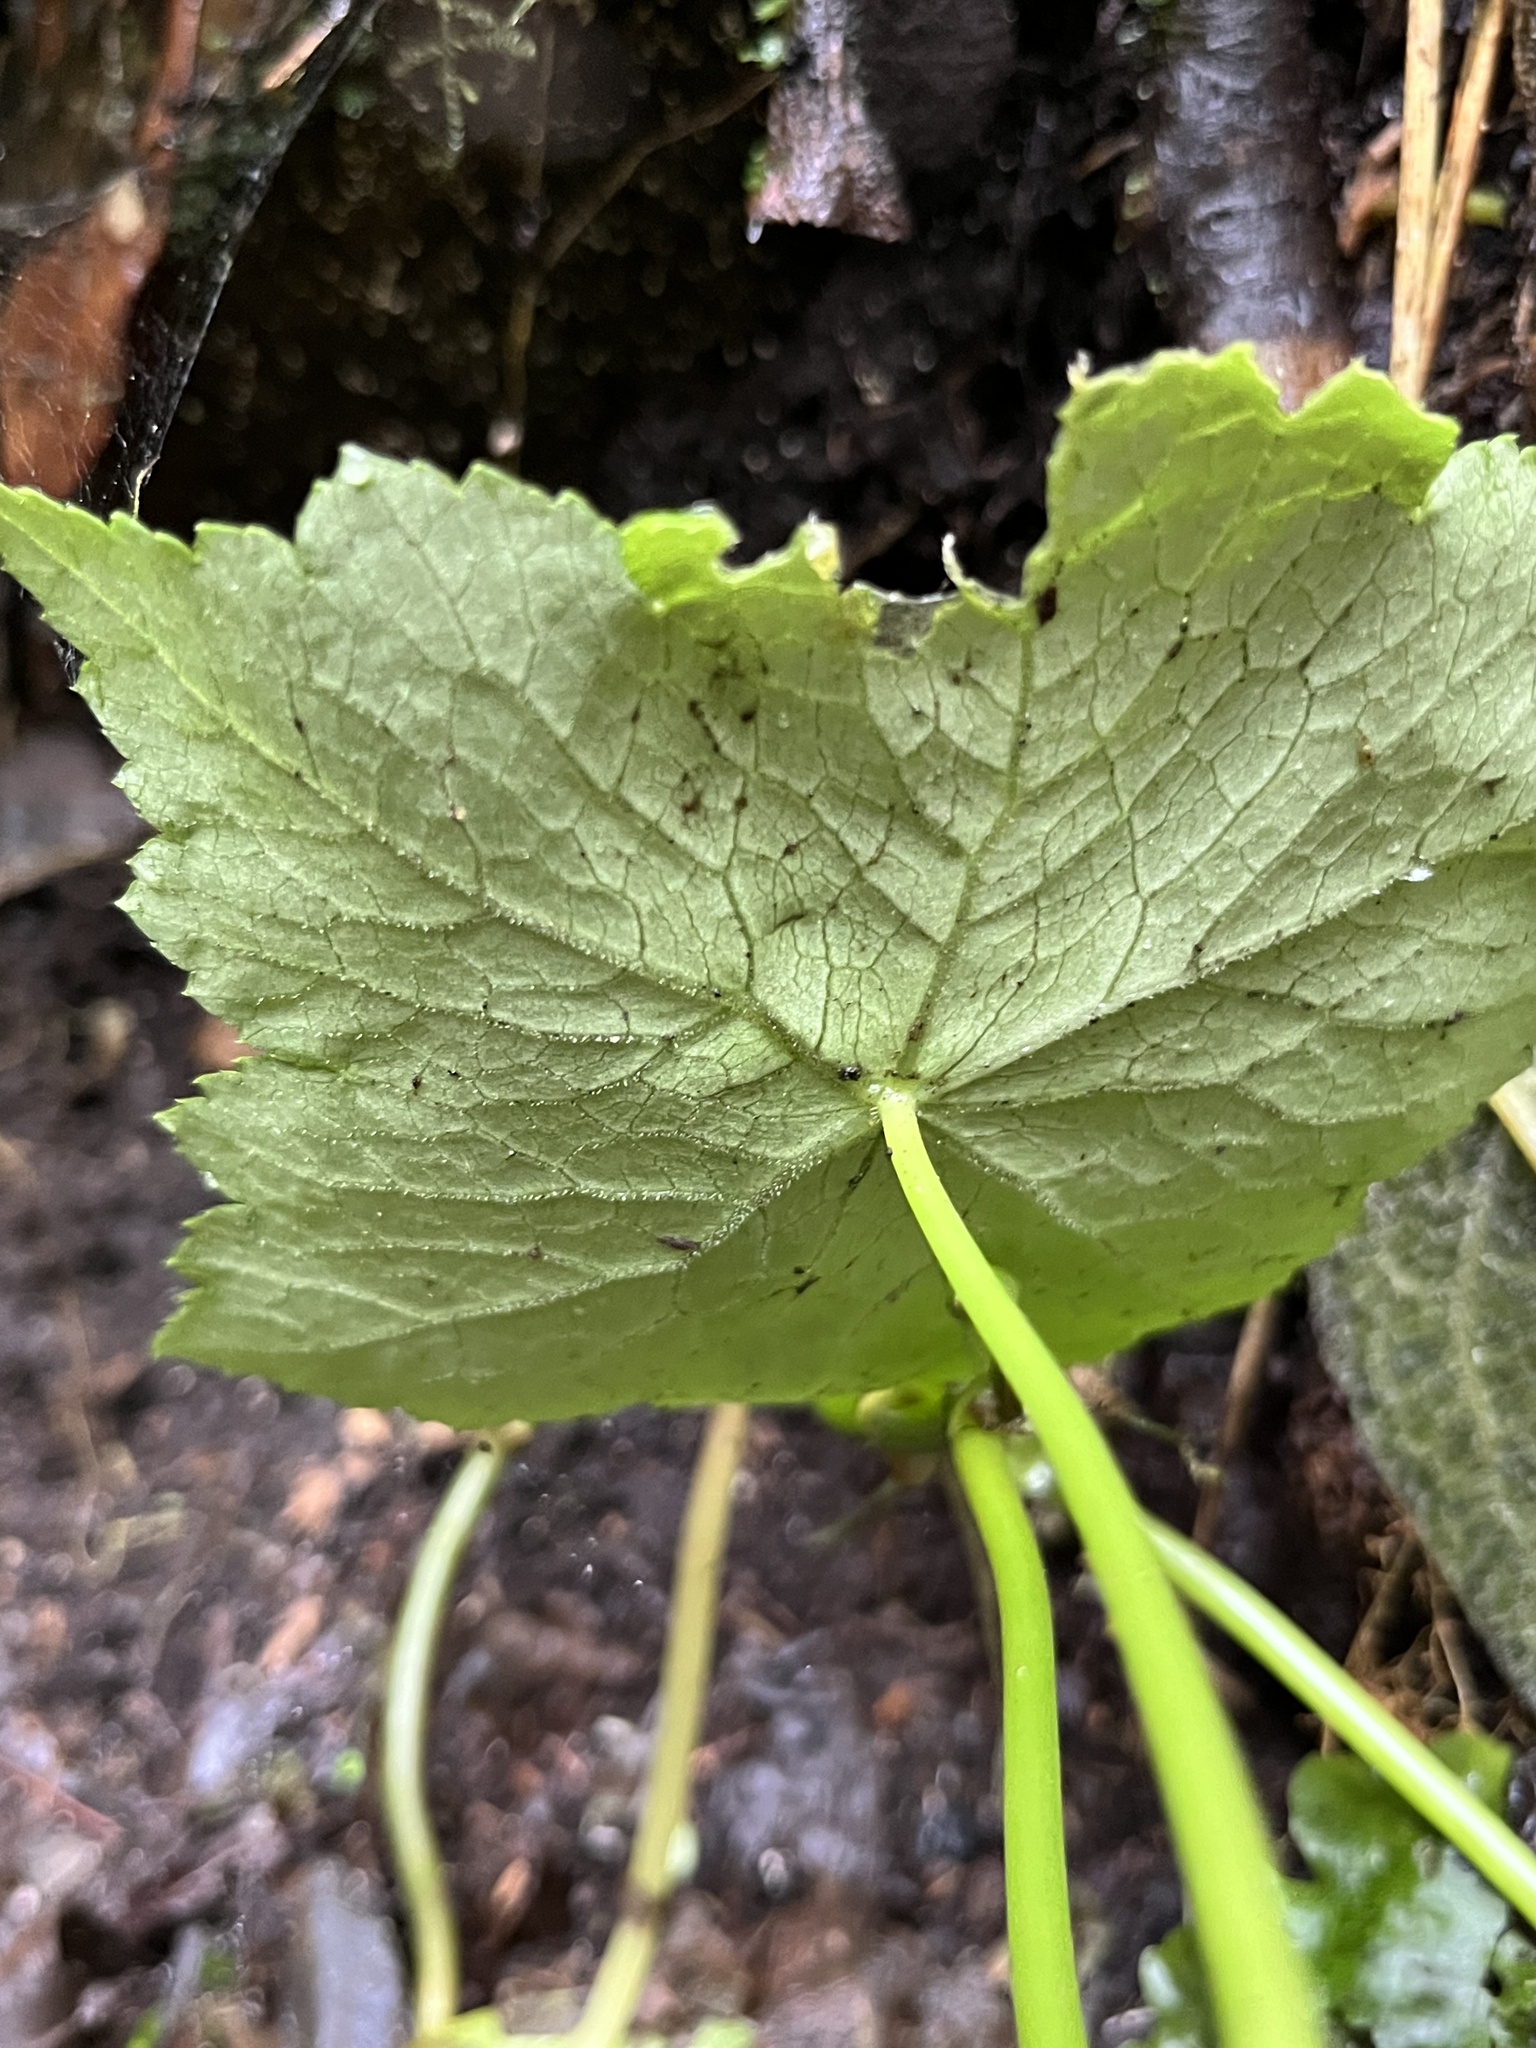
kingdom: Plantae
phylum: Tracheophyta
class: Magnoliopsida
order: Apiales
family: Araliaceae
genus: Hydrocotyle
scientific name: Hydrocotyle aconitifolia
